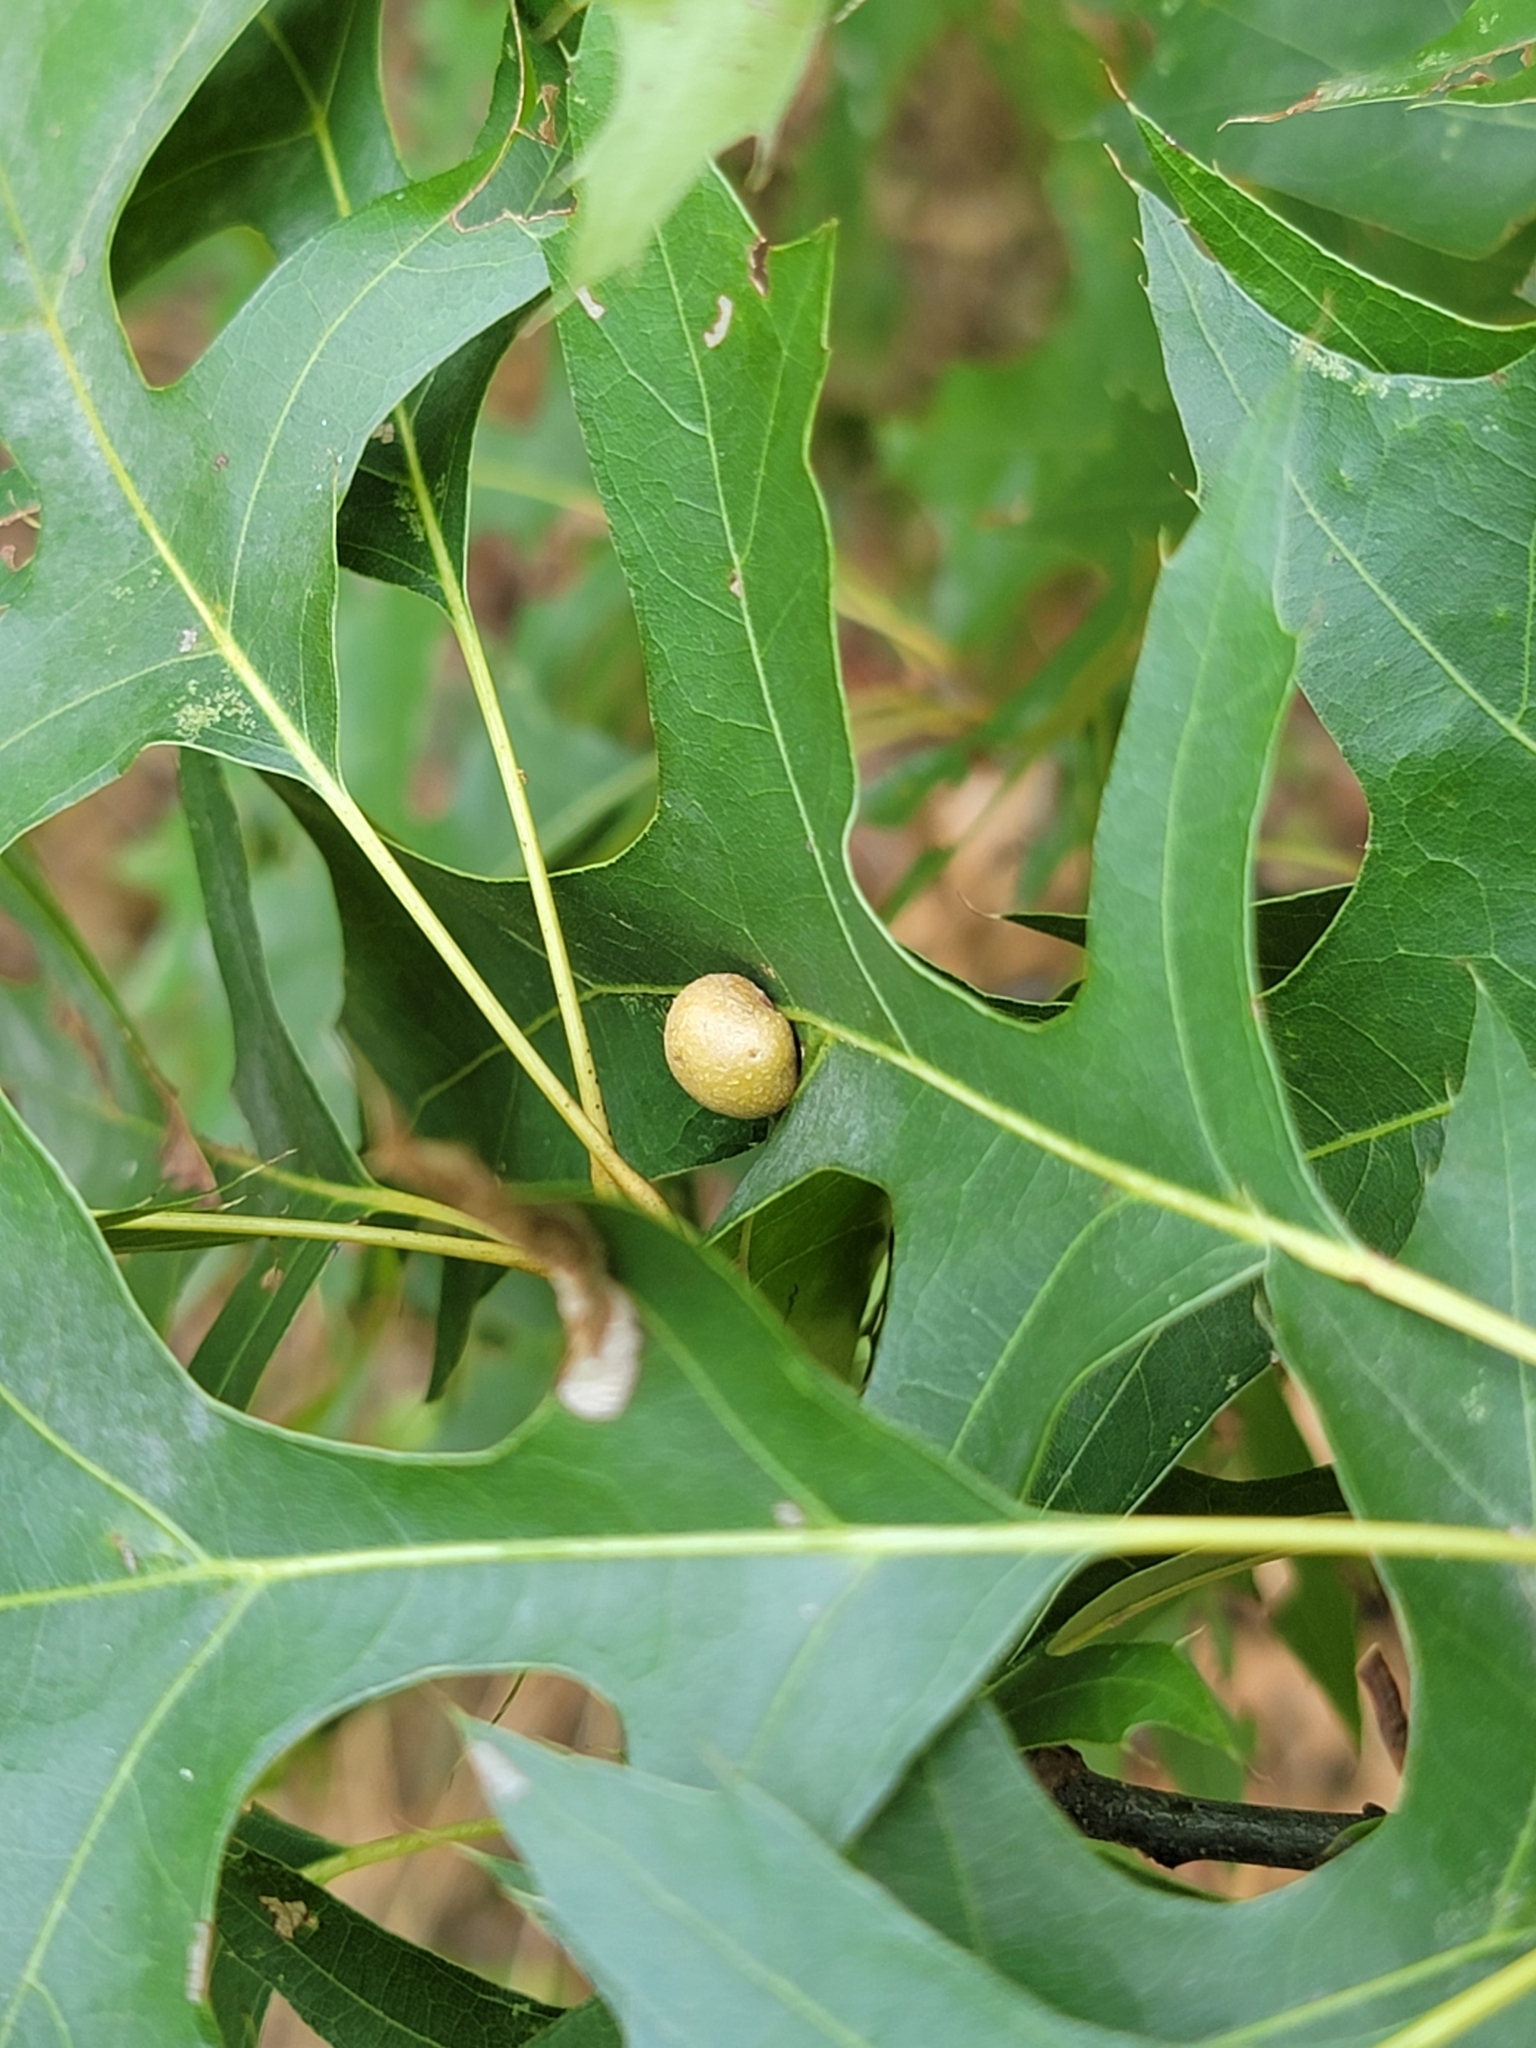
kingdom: Animalia
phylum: Arthropoda
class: Insecta
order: Diptera
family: Cecidomyiidae
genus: Polystepha
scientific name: Polystepha pilulae
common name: Oak leaf gall midge
